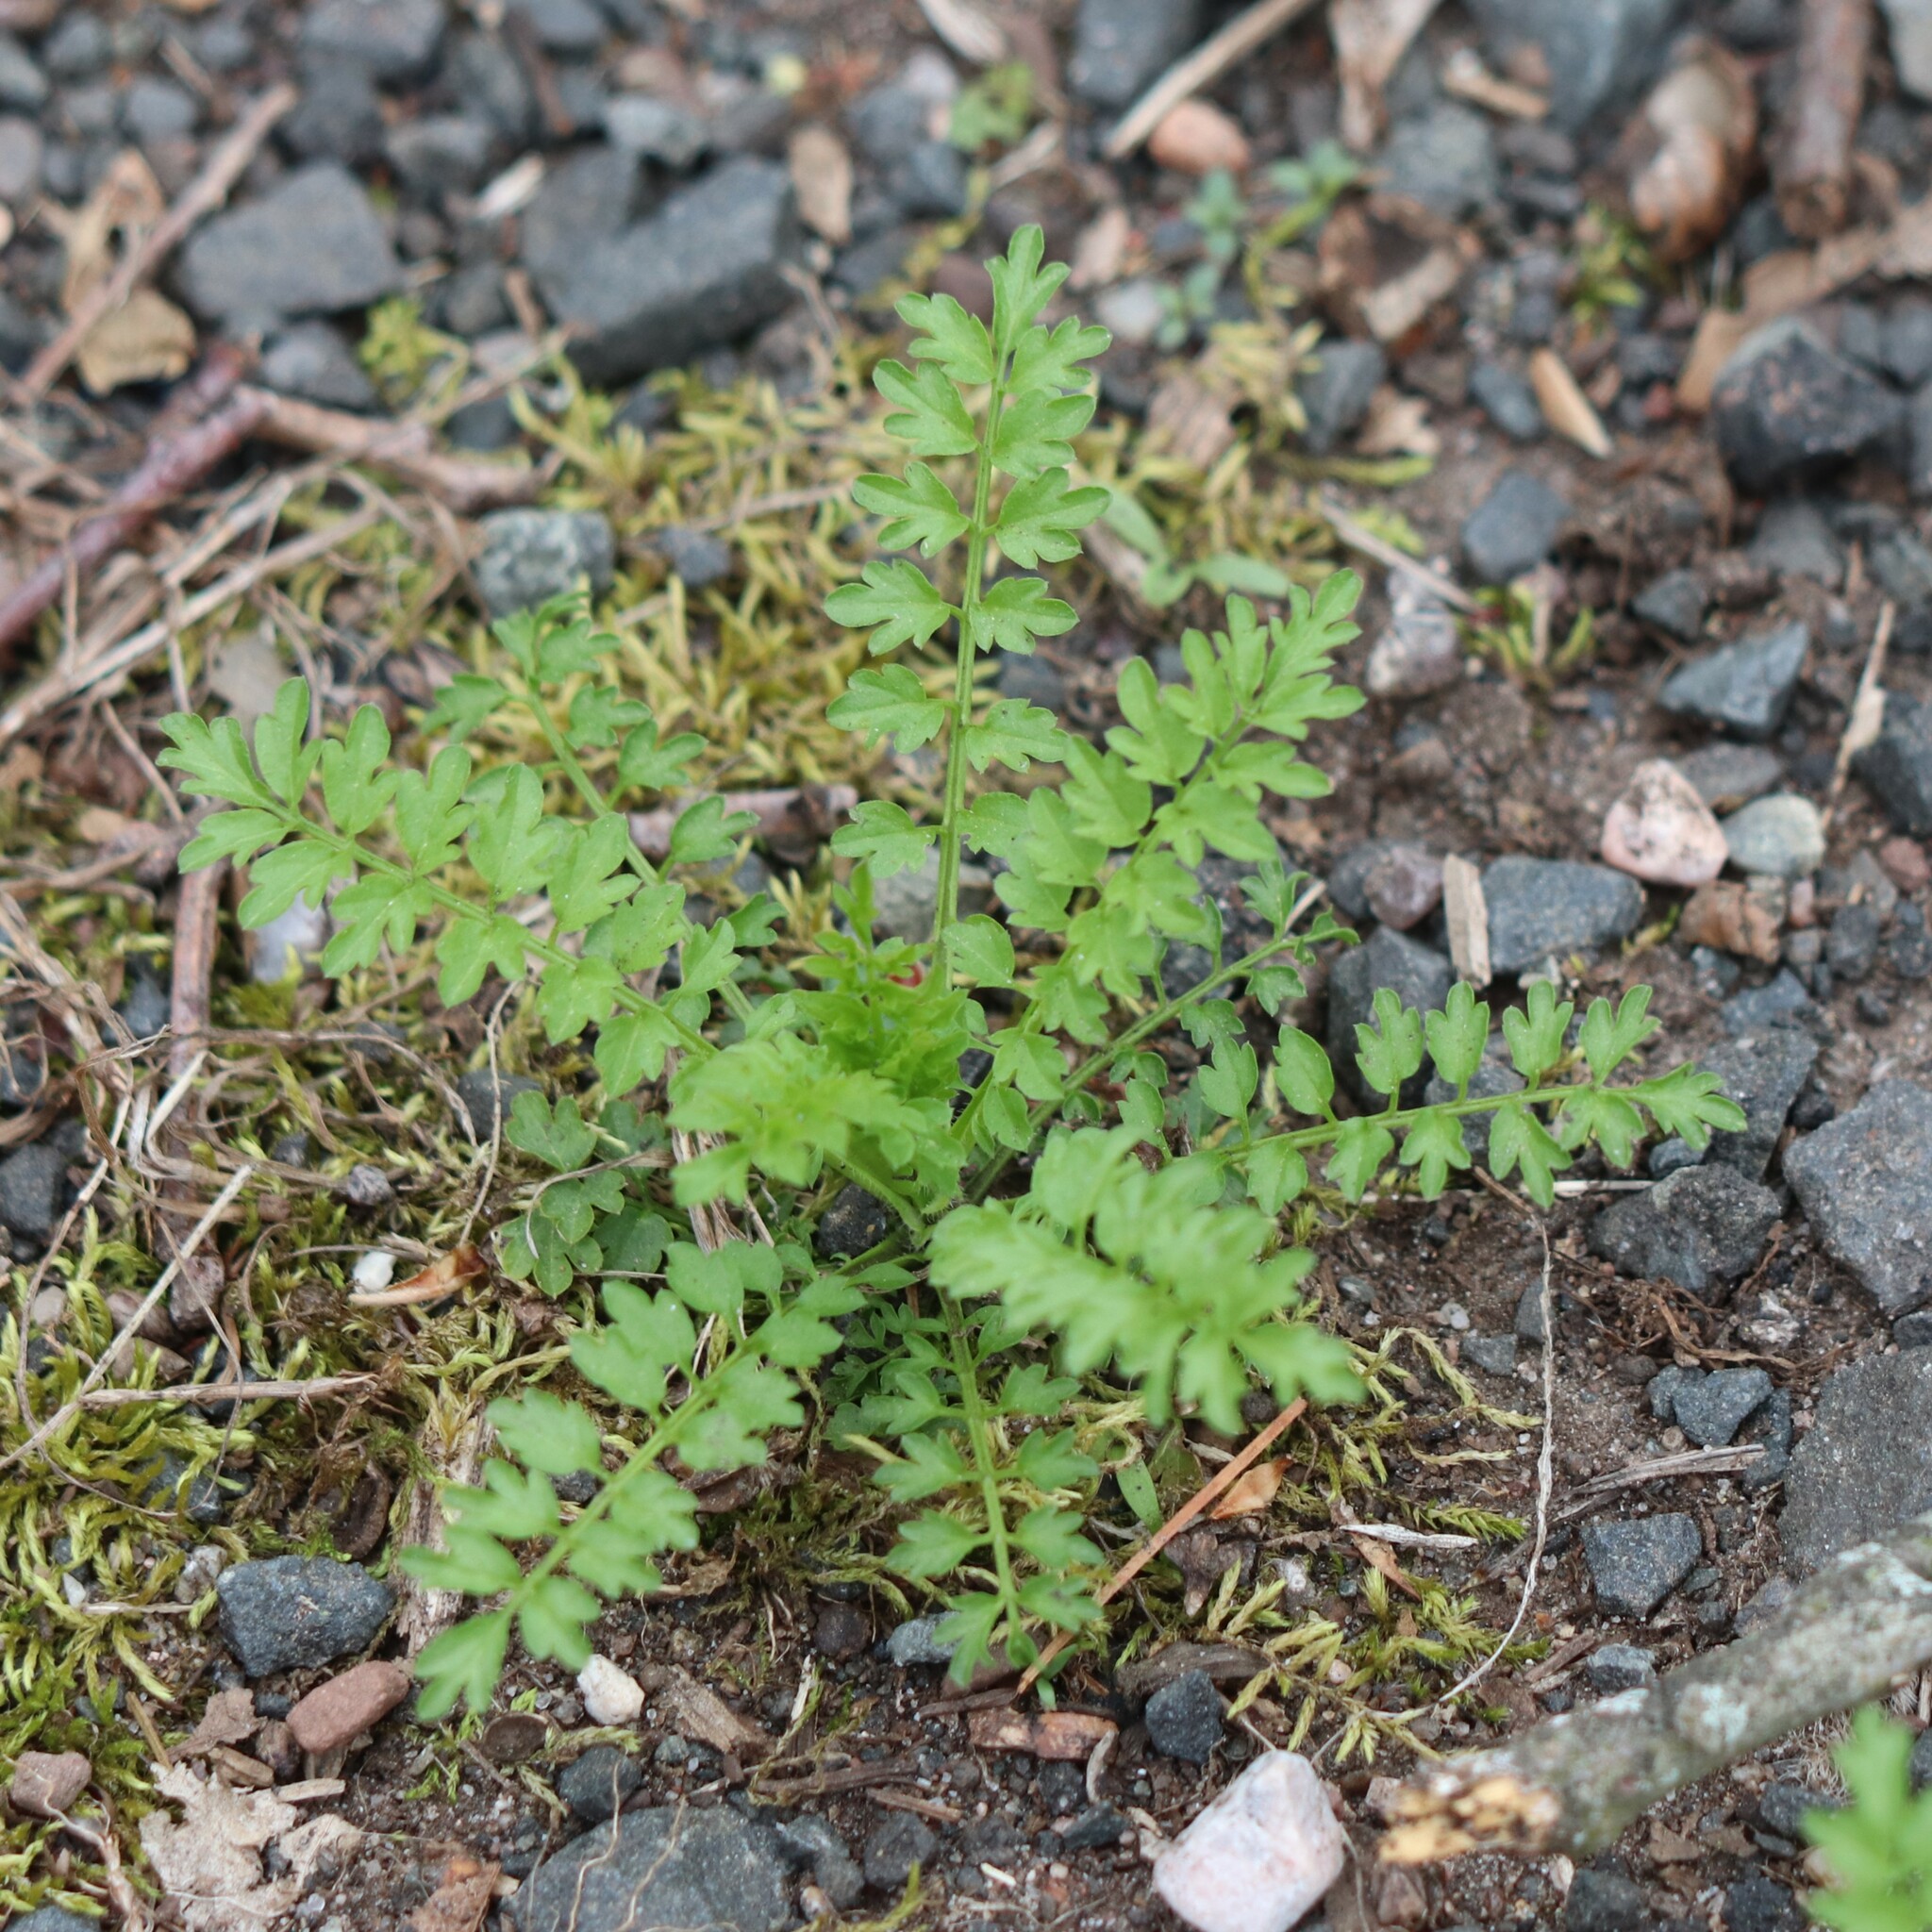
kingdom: Plantae
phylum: Tracheophyta
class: Magnoliopsida
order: Brassicales
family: Brassicaceae
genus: Cardamine
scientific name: Cardamine impatiens
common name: Narrow-leaved bitter-cress
